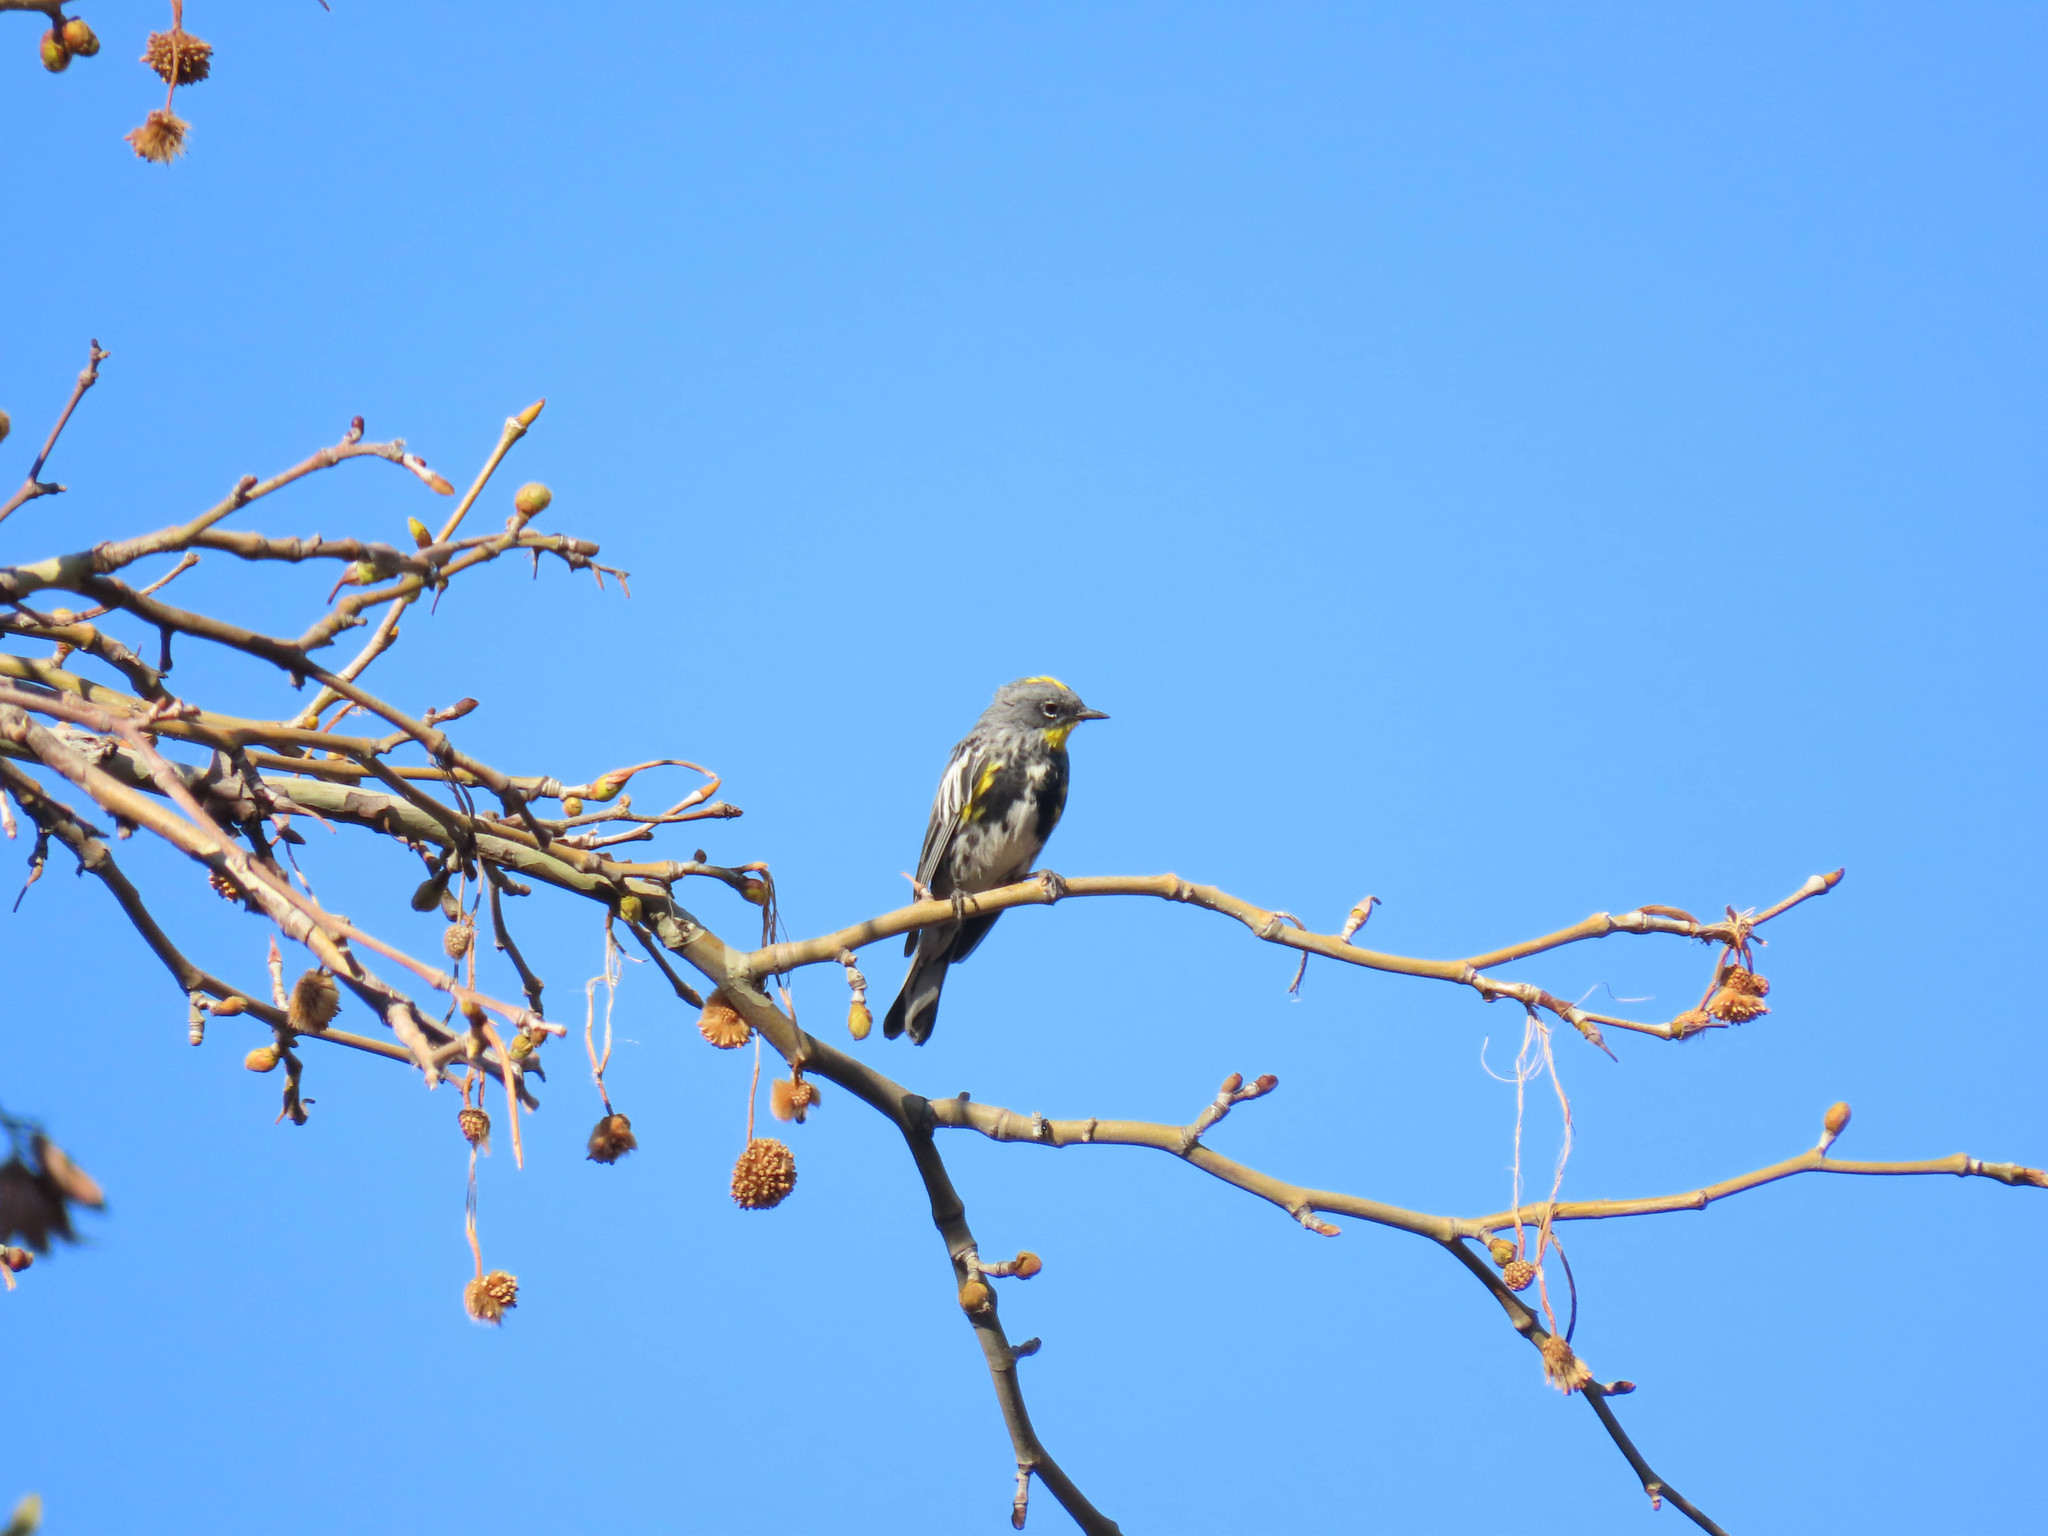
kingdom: Animalia
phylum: Chordata
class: Aves
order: Passeriformes
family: Parulidae
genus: Setophaga
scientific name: Setophaga auduboni
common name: Audubon's warbler
